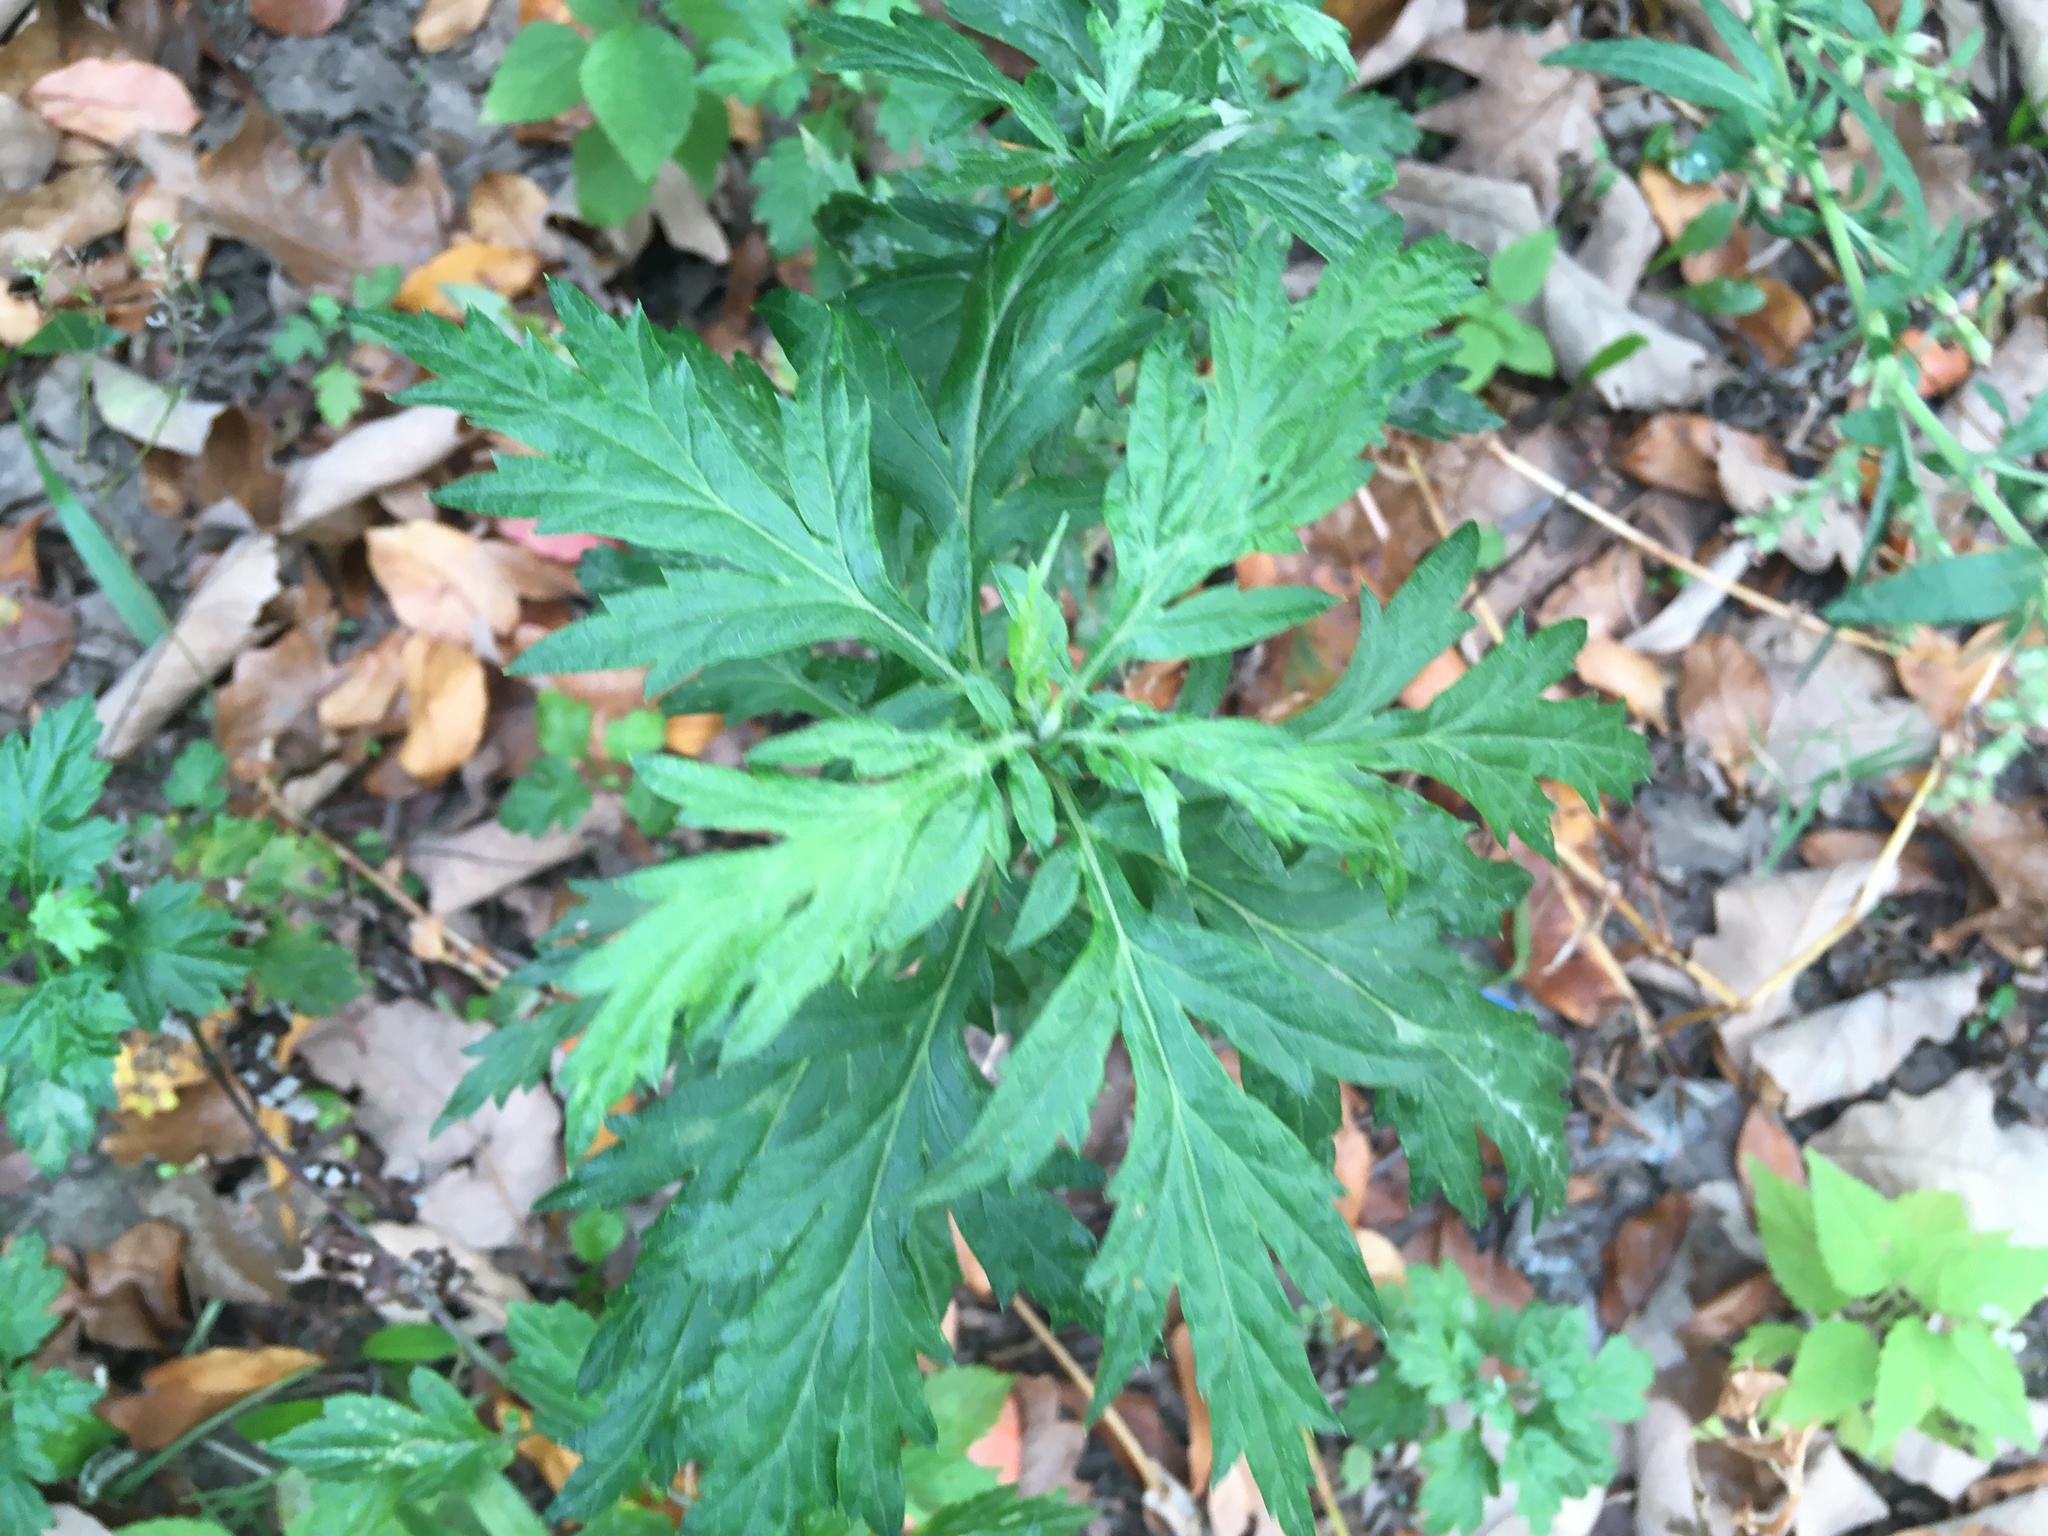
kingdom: Plantae
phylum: Tracheophyta
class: Magnoliopsida
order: Asterales
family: Asteraceae
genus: Artemisia
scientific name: Artemisia vulgaris
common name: Mugwort
